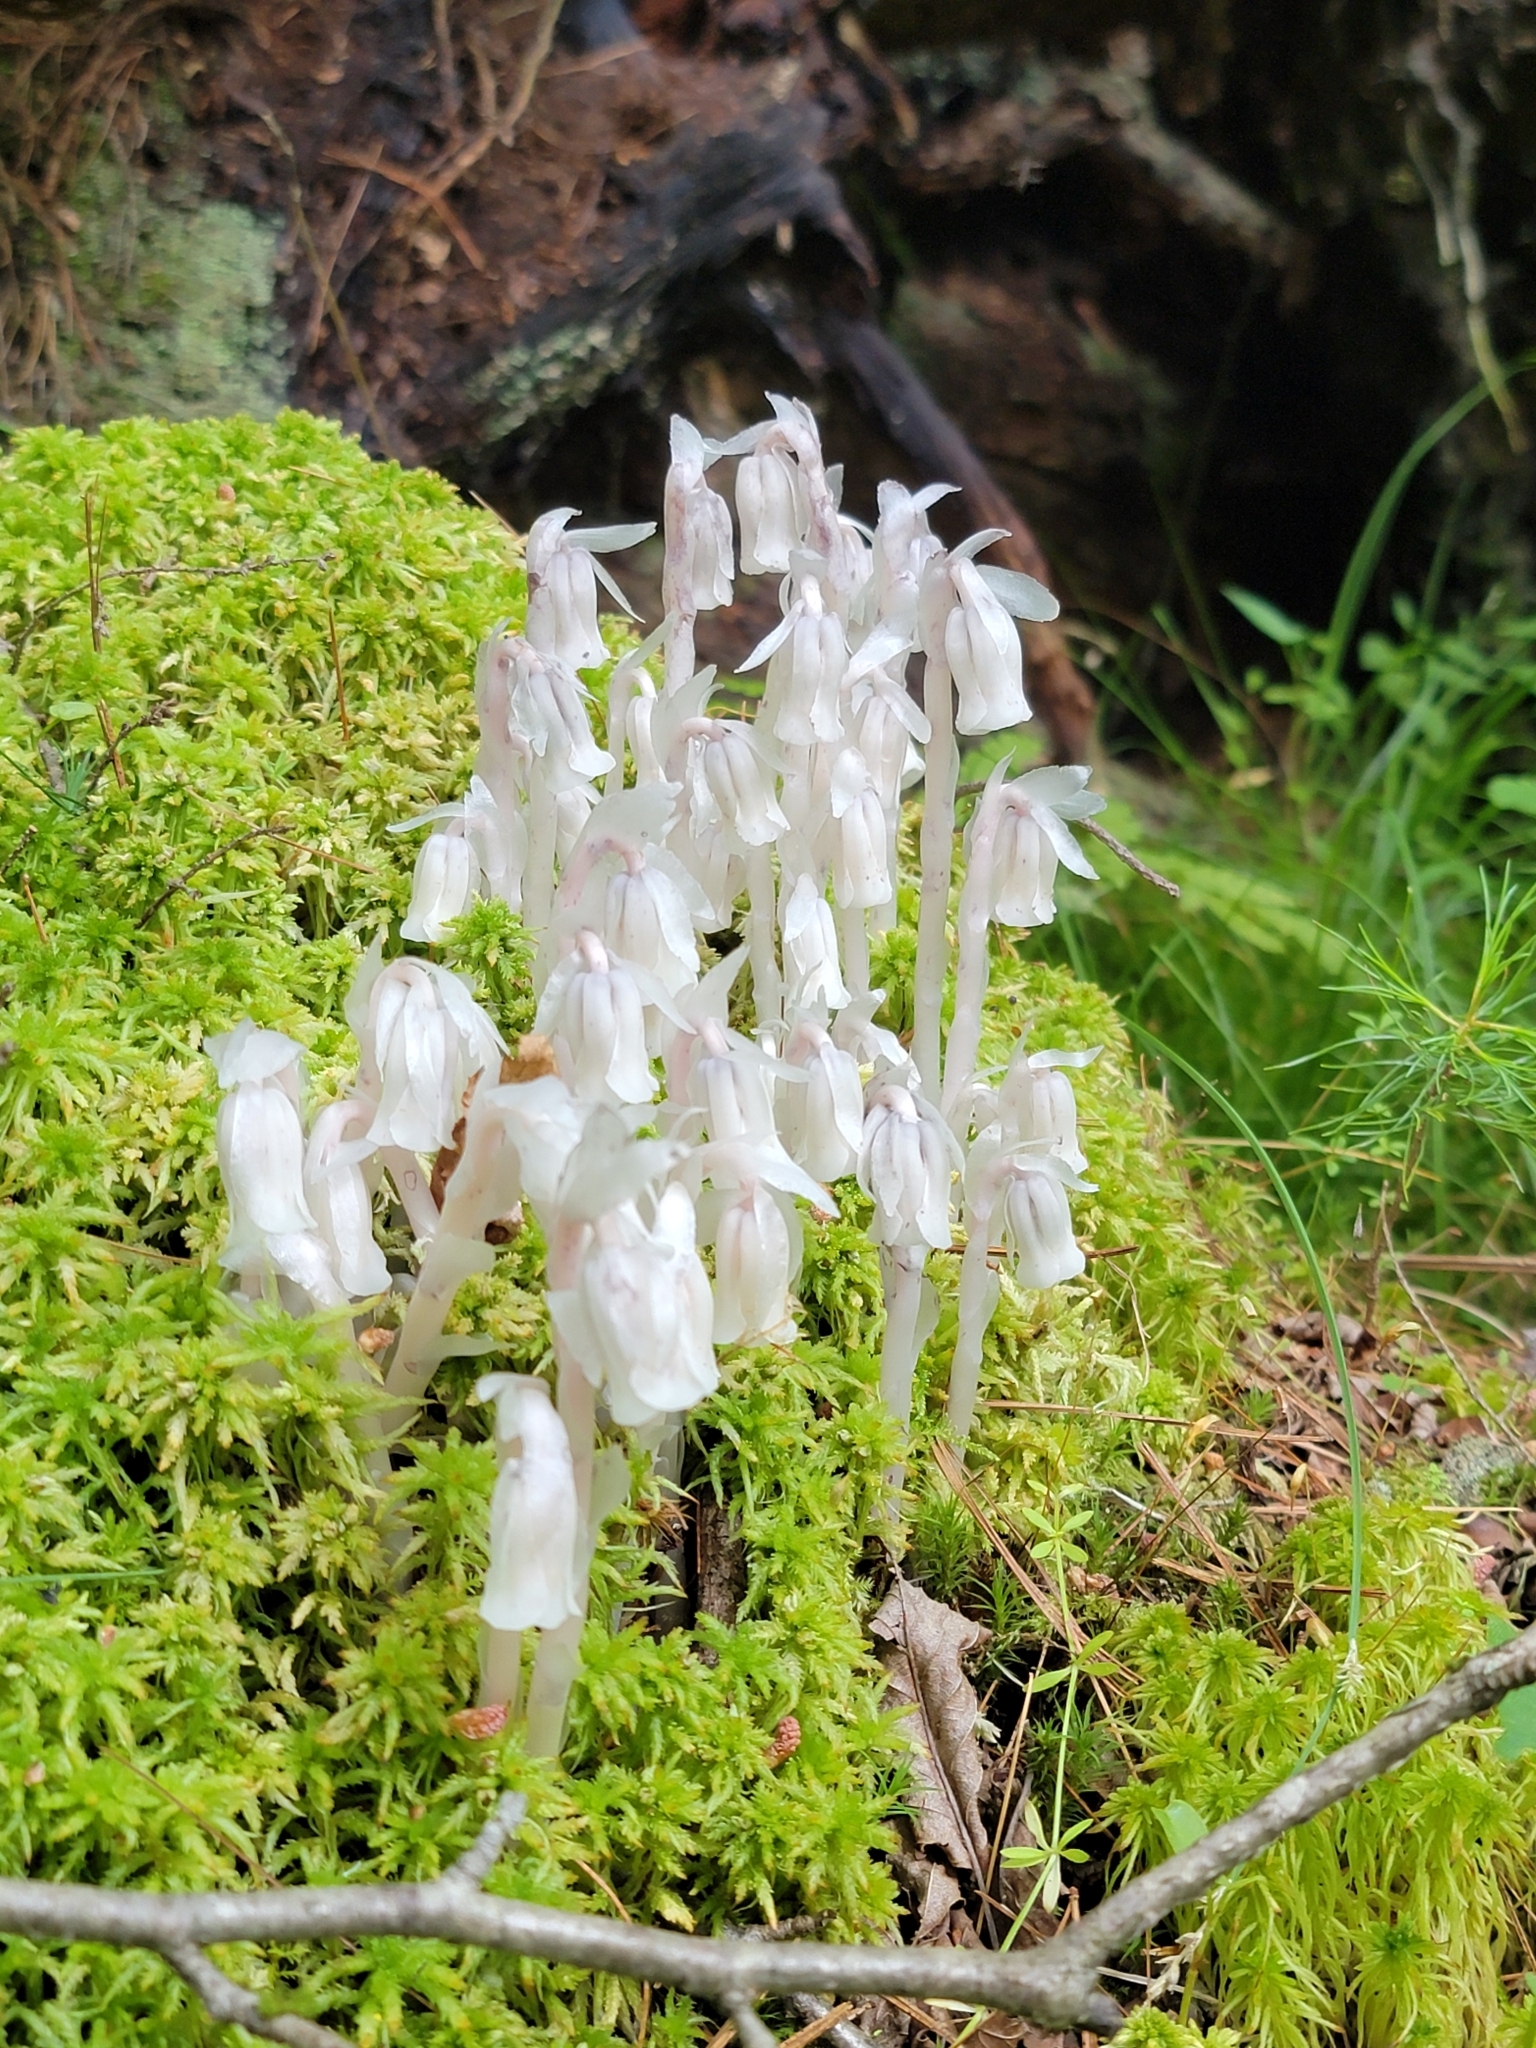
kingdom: Plantae
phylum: Tracheophyta
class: Magnoliopsida
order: Ericales
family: Ericaceae
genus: Monotropa
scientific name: Monotropa uniflora
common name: Convulsion root
